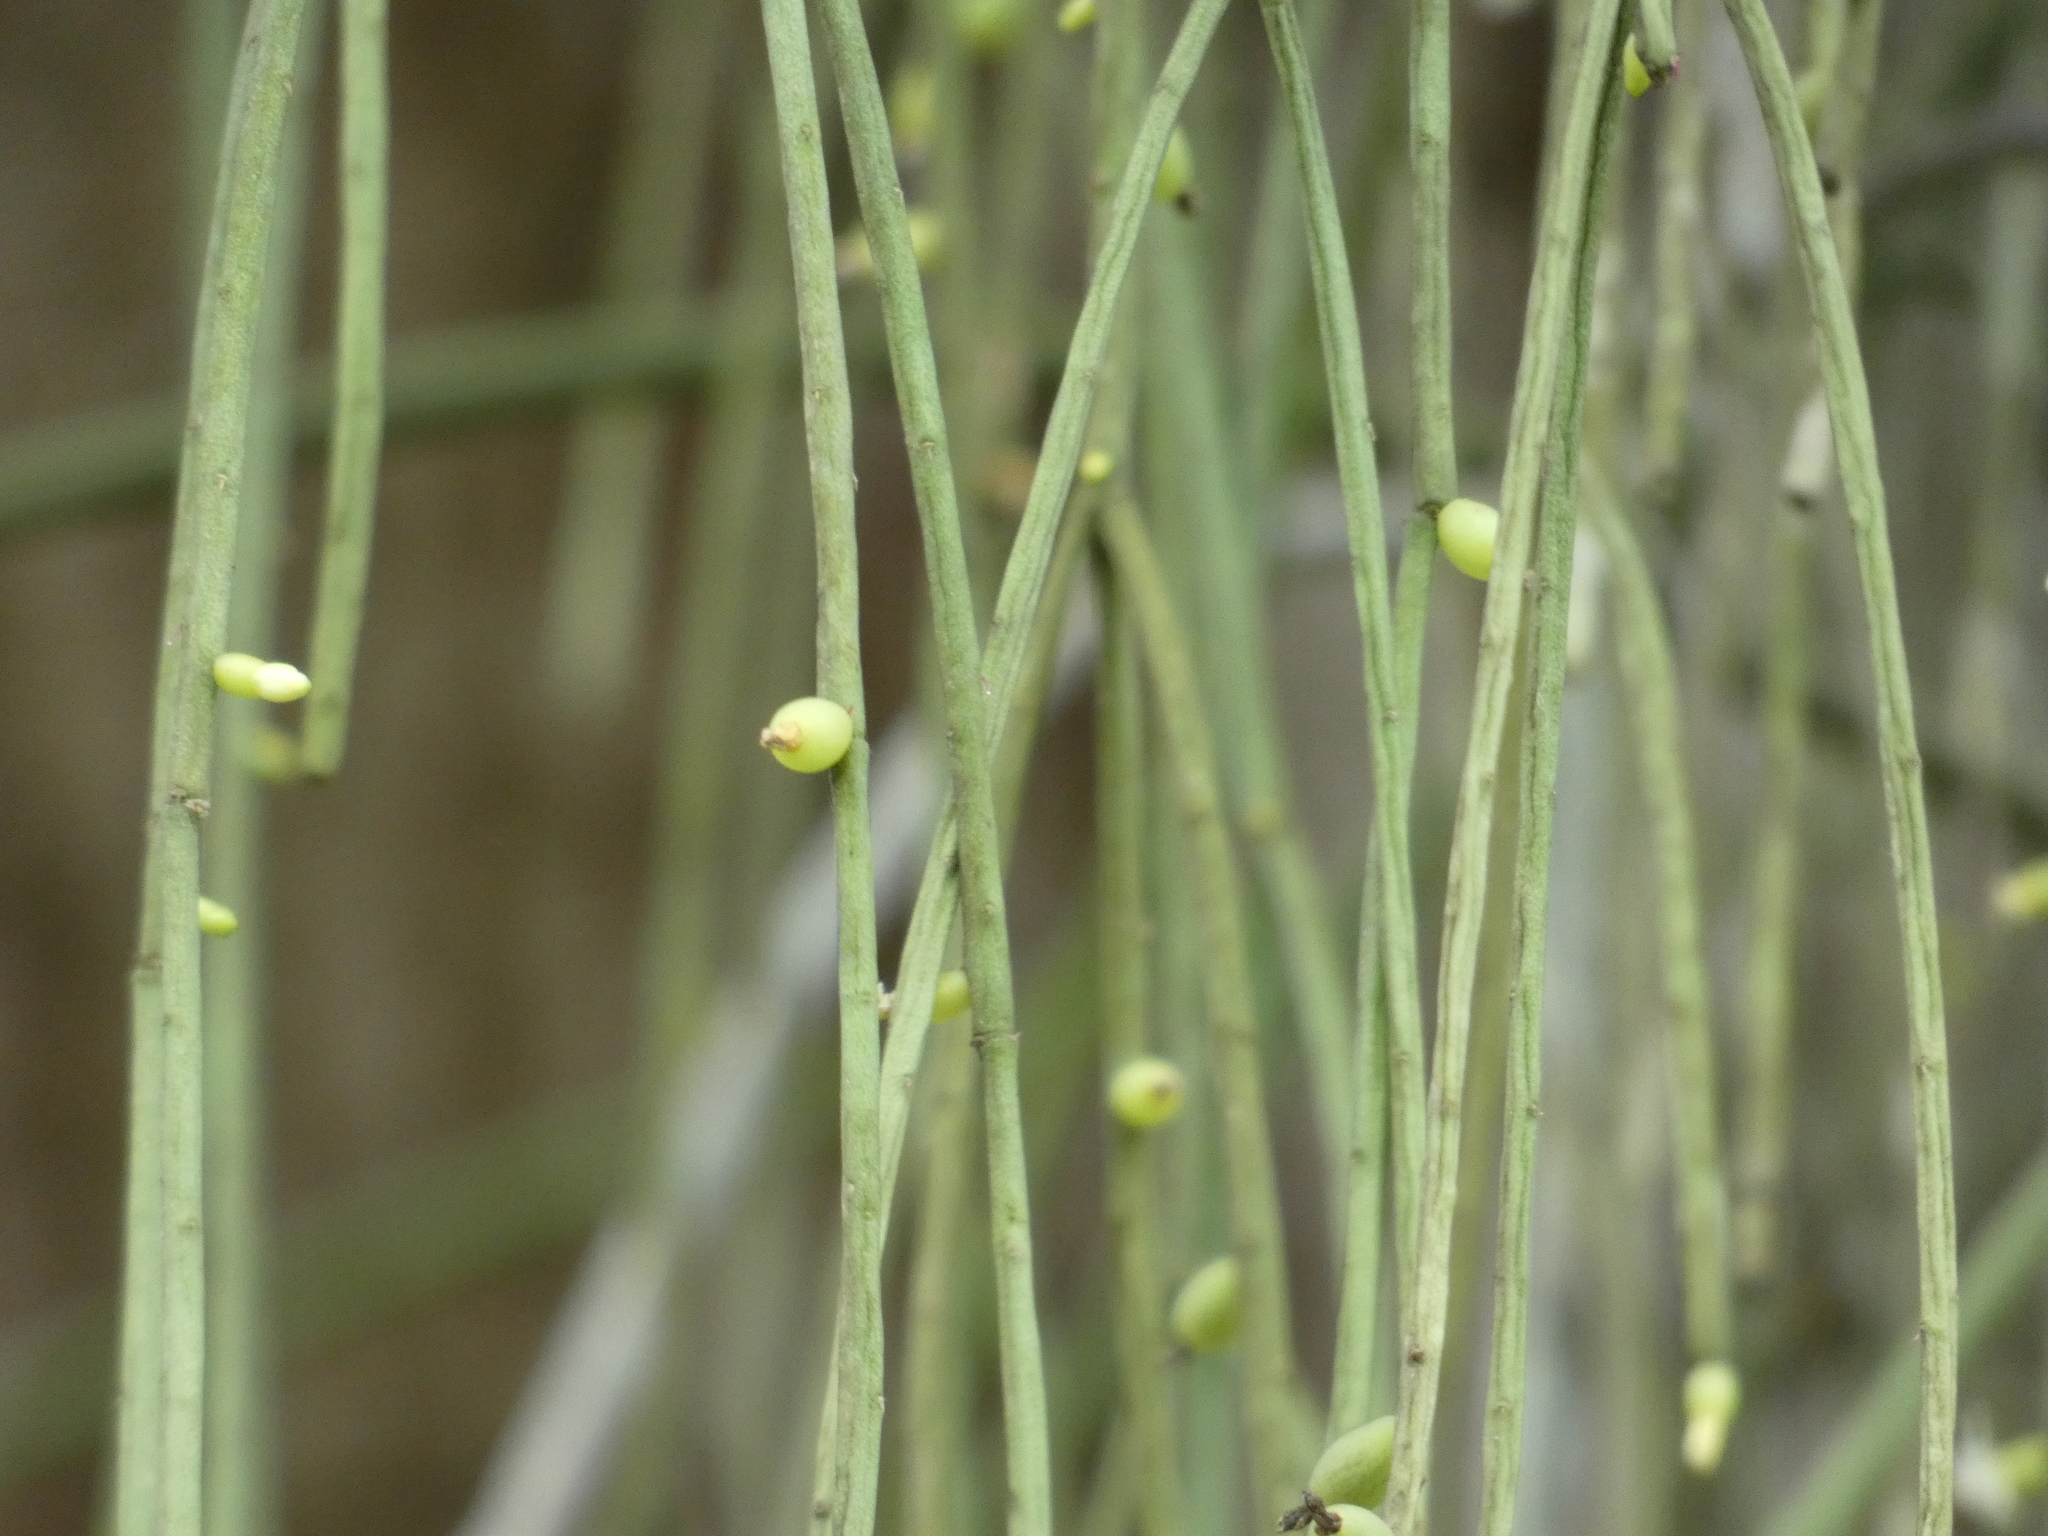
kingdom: Plantae
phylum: Tracheophyta
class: Magnoliopsida
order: Caryophyllales
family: Cactaceae
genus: Rhipsalis
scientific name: Rhipsalis baccifera
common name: Mistletoe cactus
